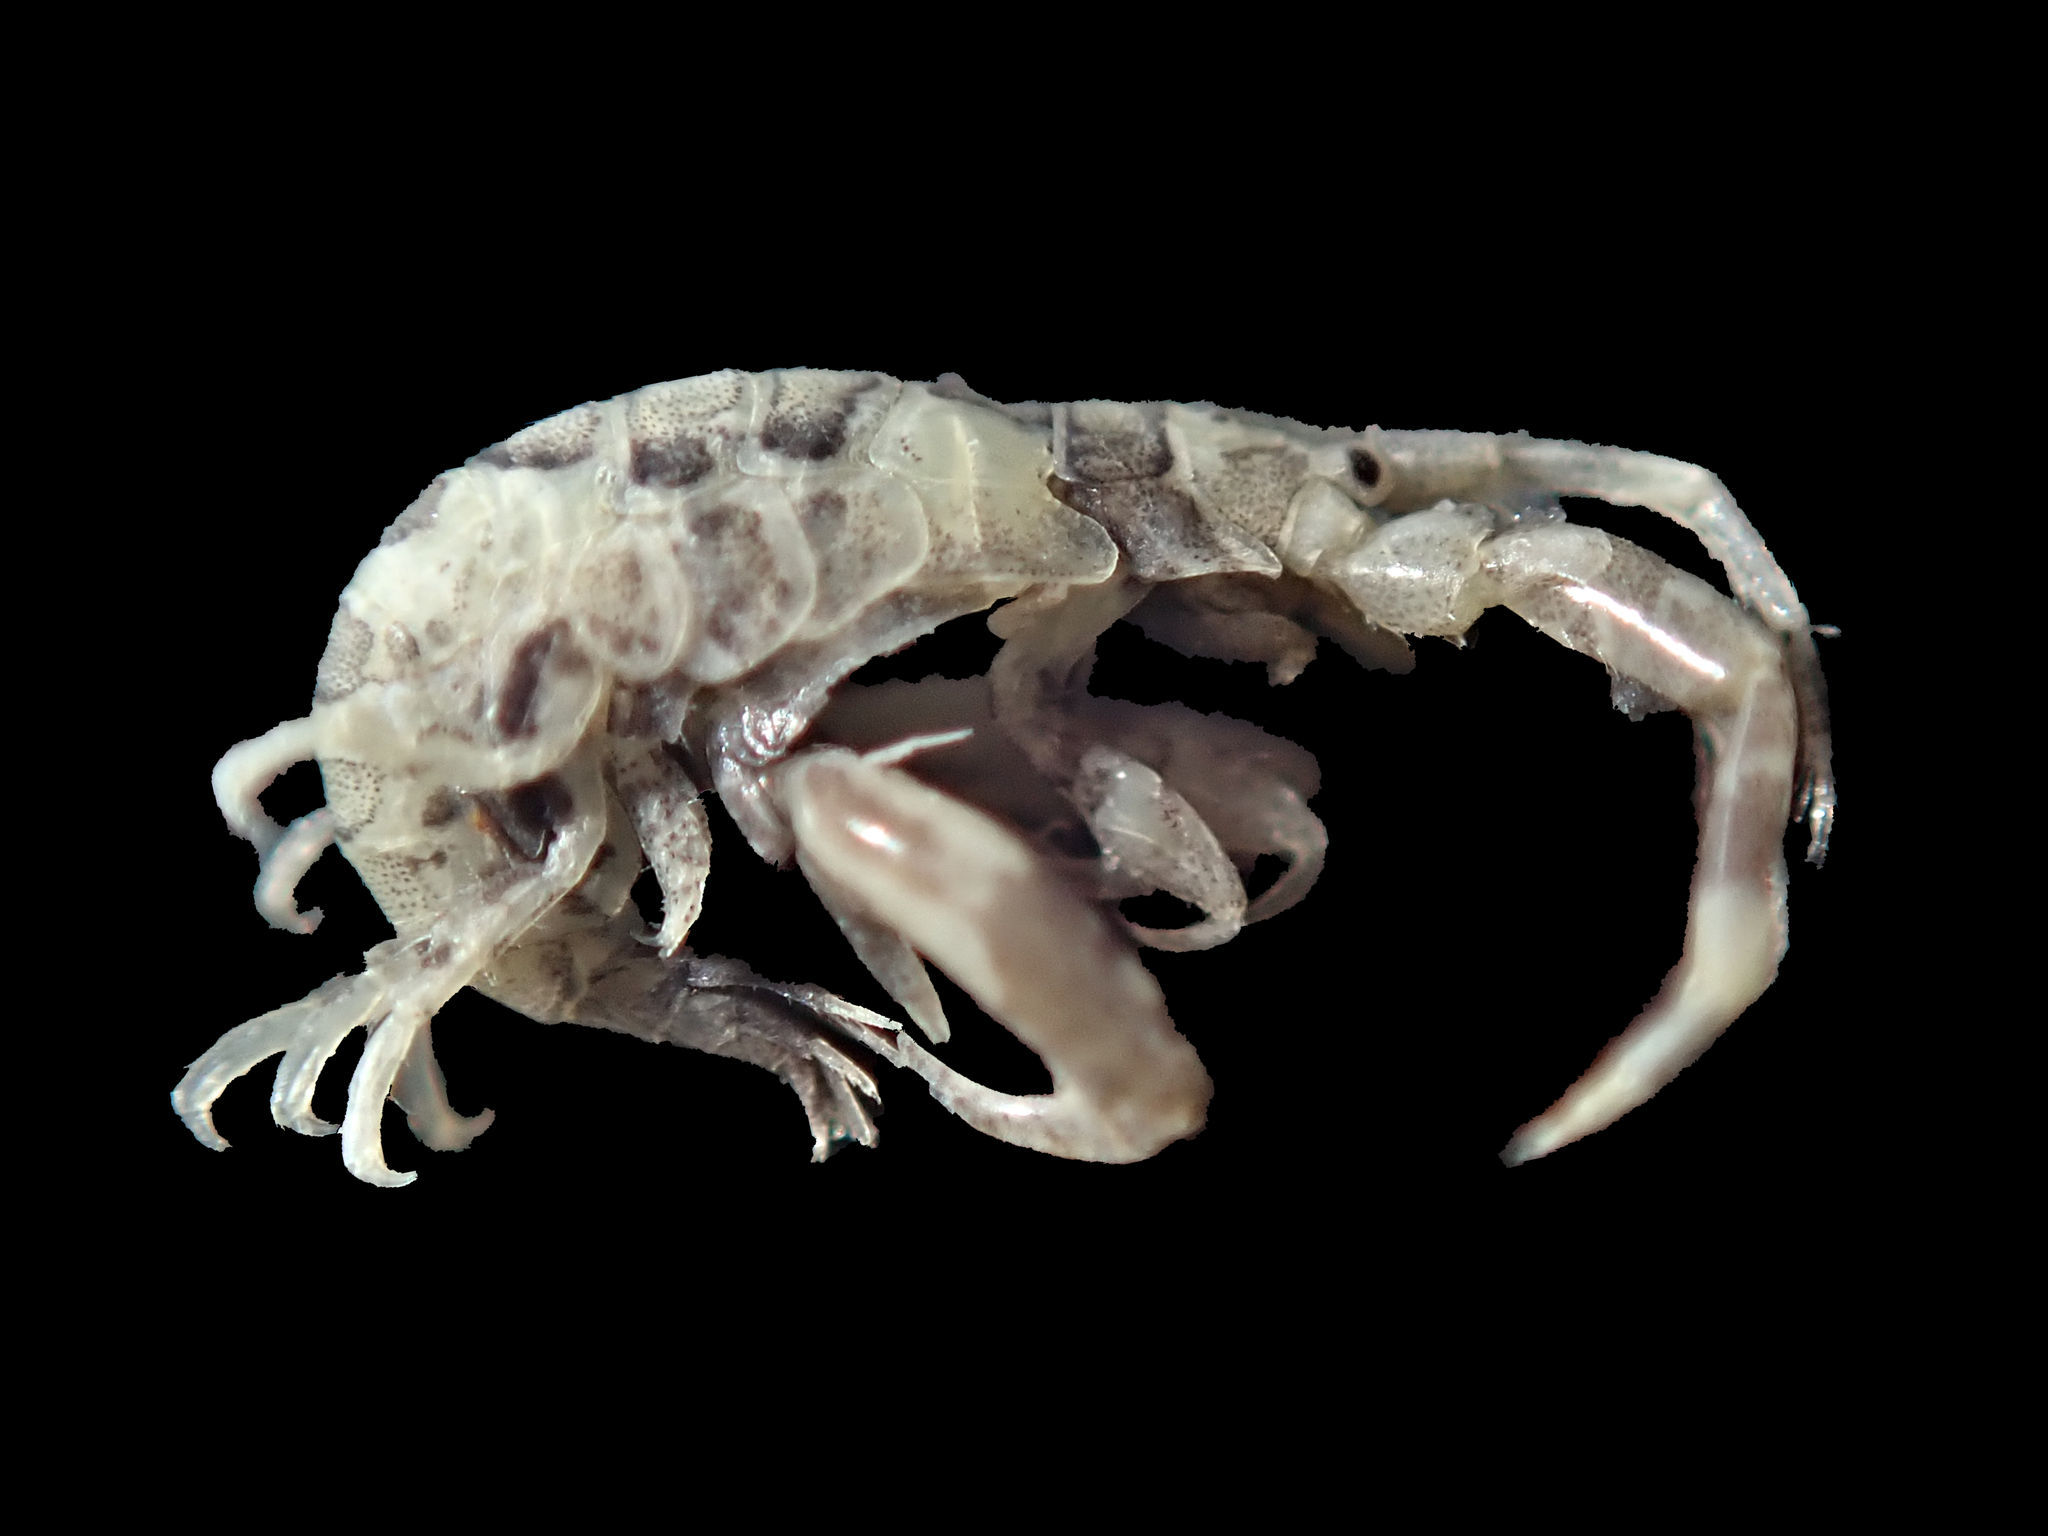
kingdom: Animalia
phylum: Arthropoda
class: Malacostraca
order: Amphipoda
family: Ischyroceridae
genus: Jassa
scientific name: Jassa slatteryi
